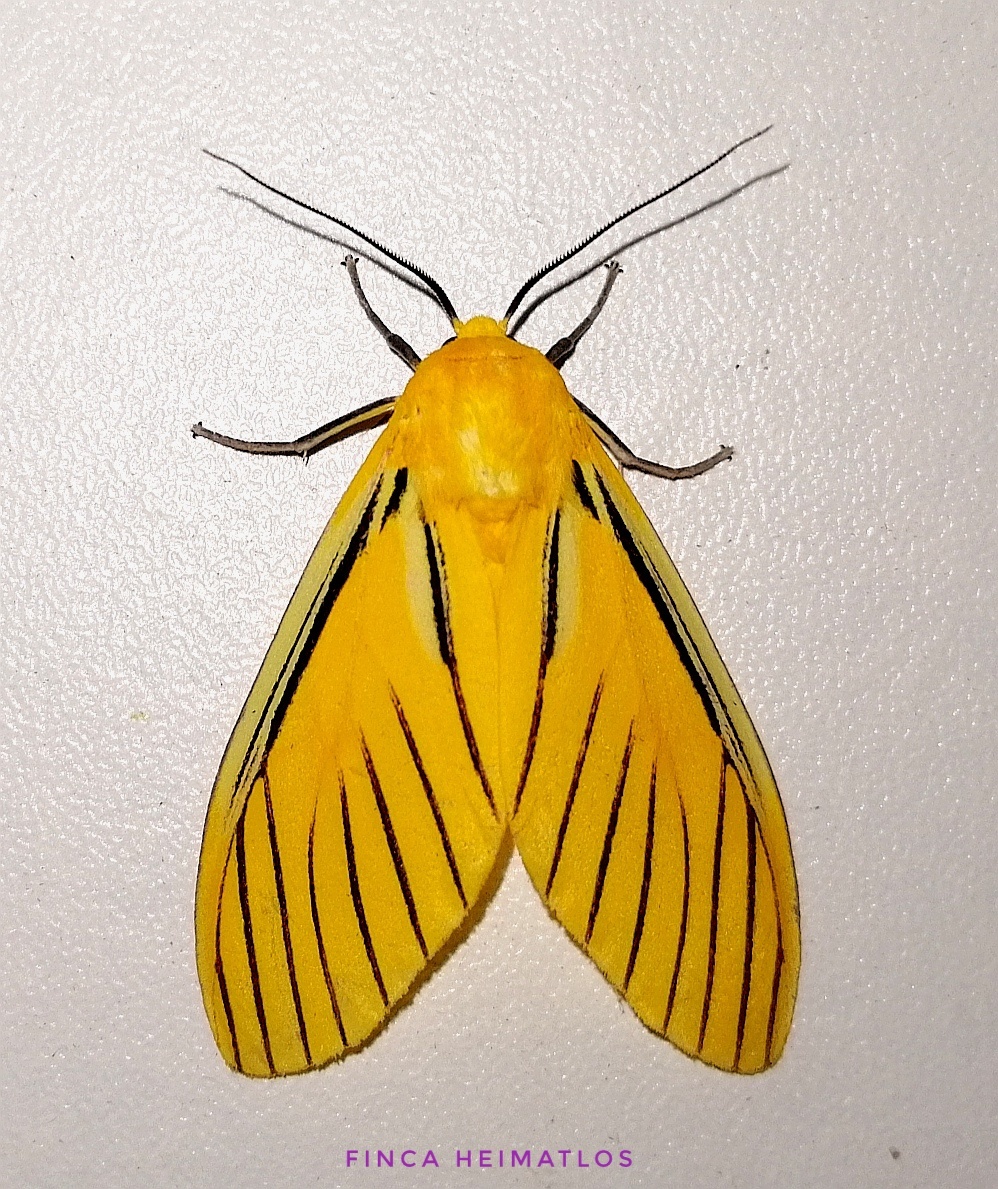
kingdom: Animalia
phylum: Arthropoda
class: Insecta
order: Lepidoptera
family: Erebidae
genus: Symphlebia
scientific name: Symphlebia aryllis
